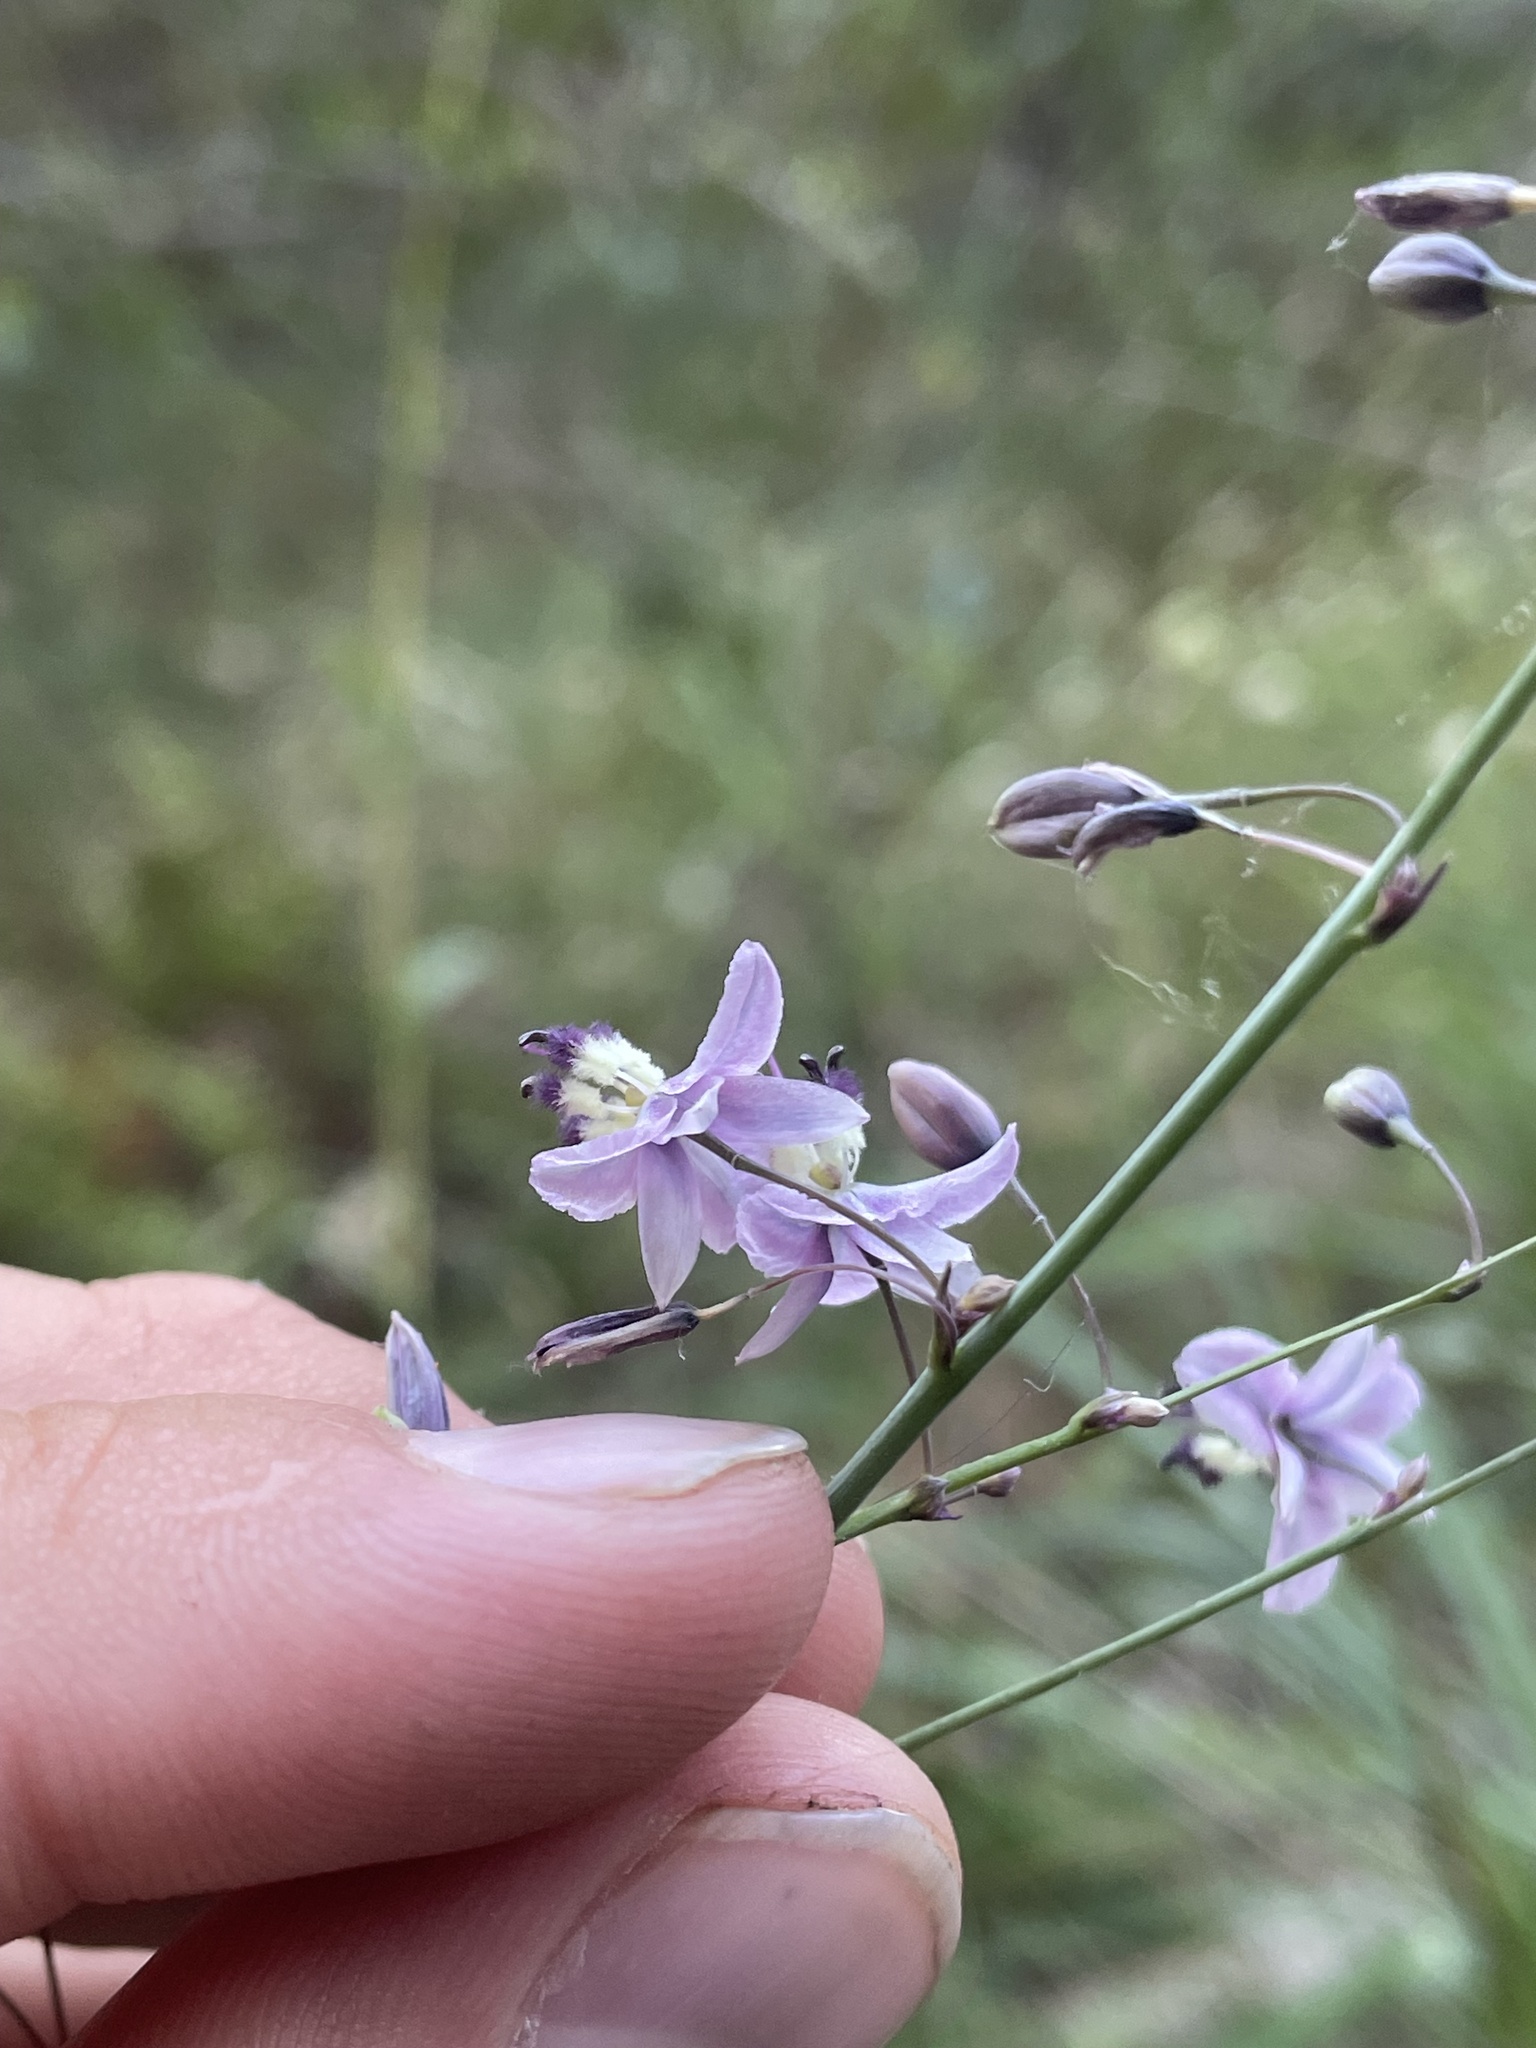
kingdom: Plantae
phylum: Tracheophyta
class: Liliopsida
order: Asparagales
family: Asparagaceae
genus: Arthropodium
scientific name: Arthropodium milleflorum
